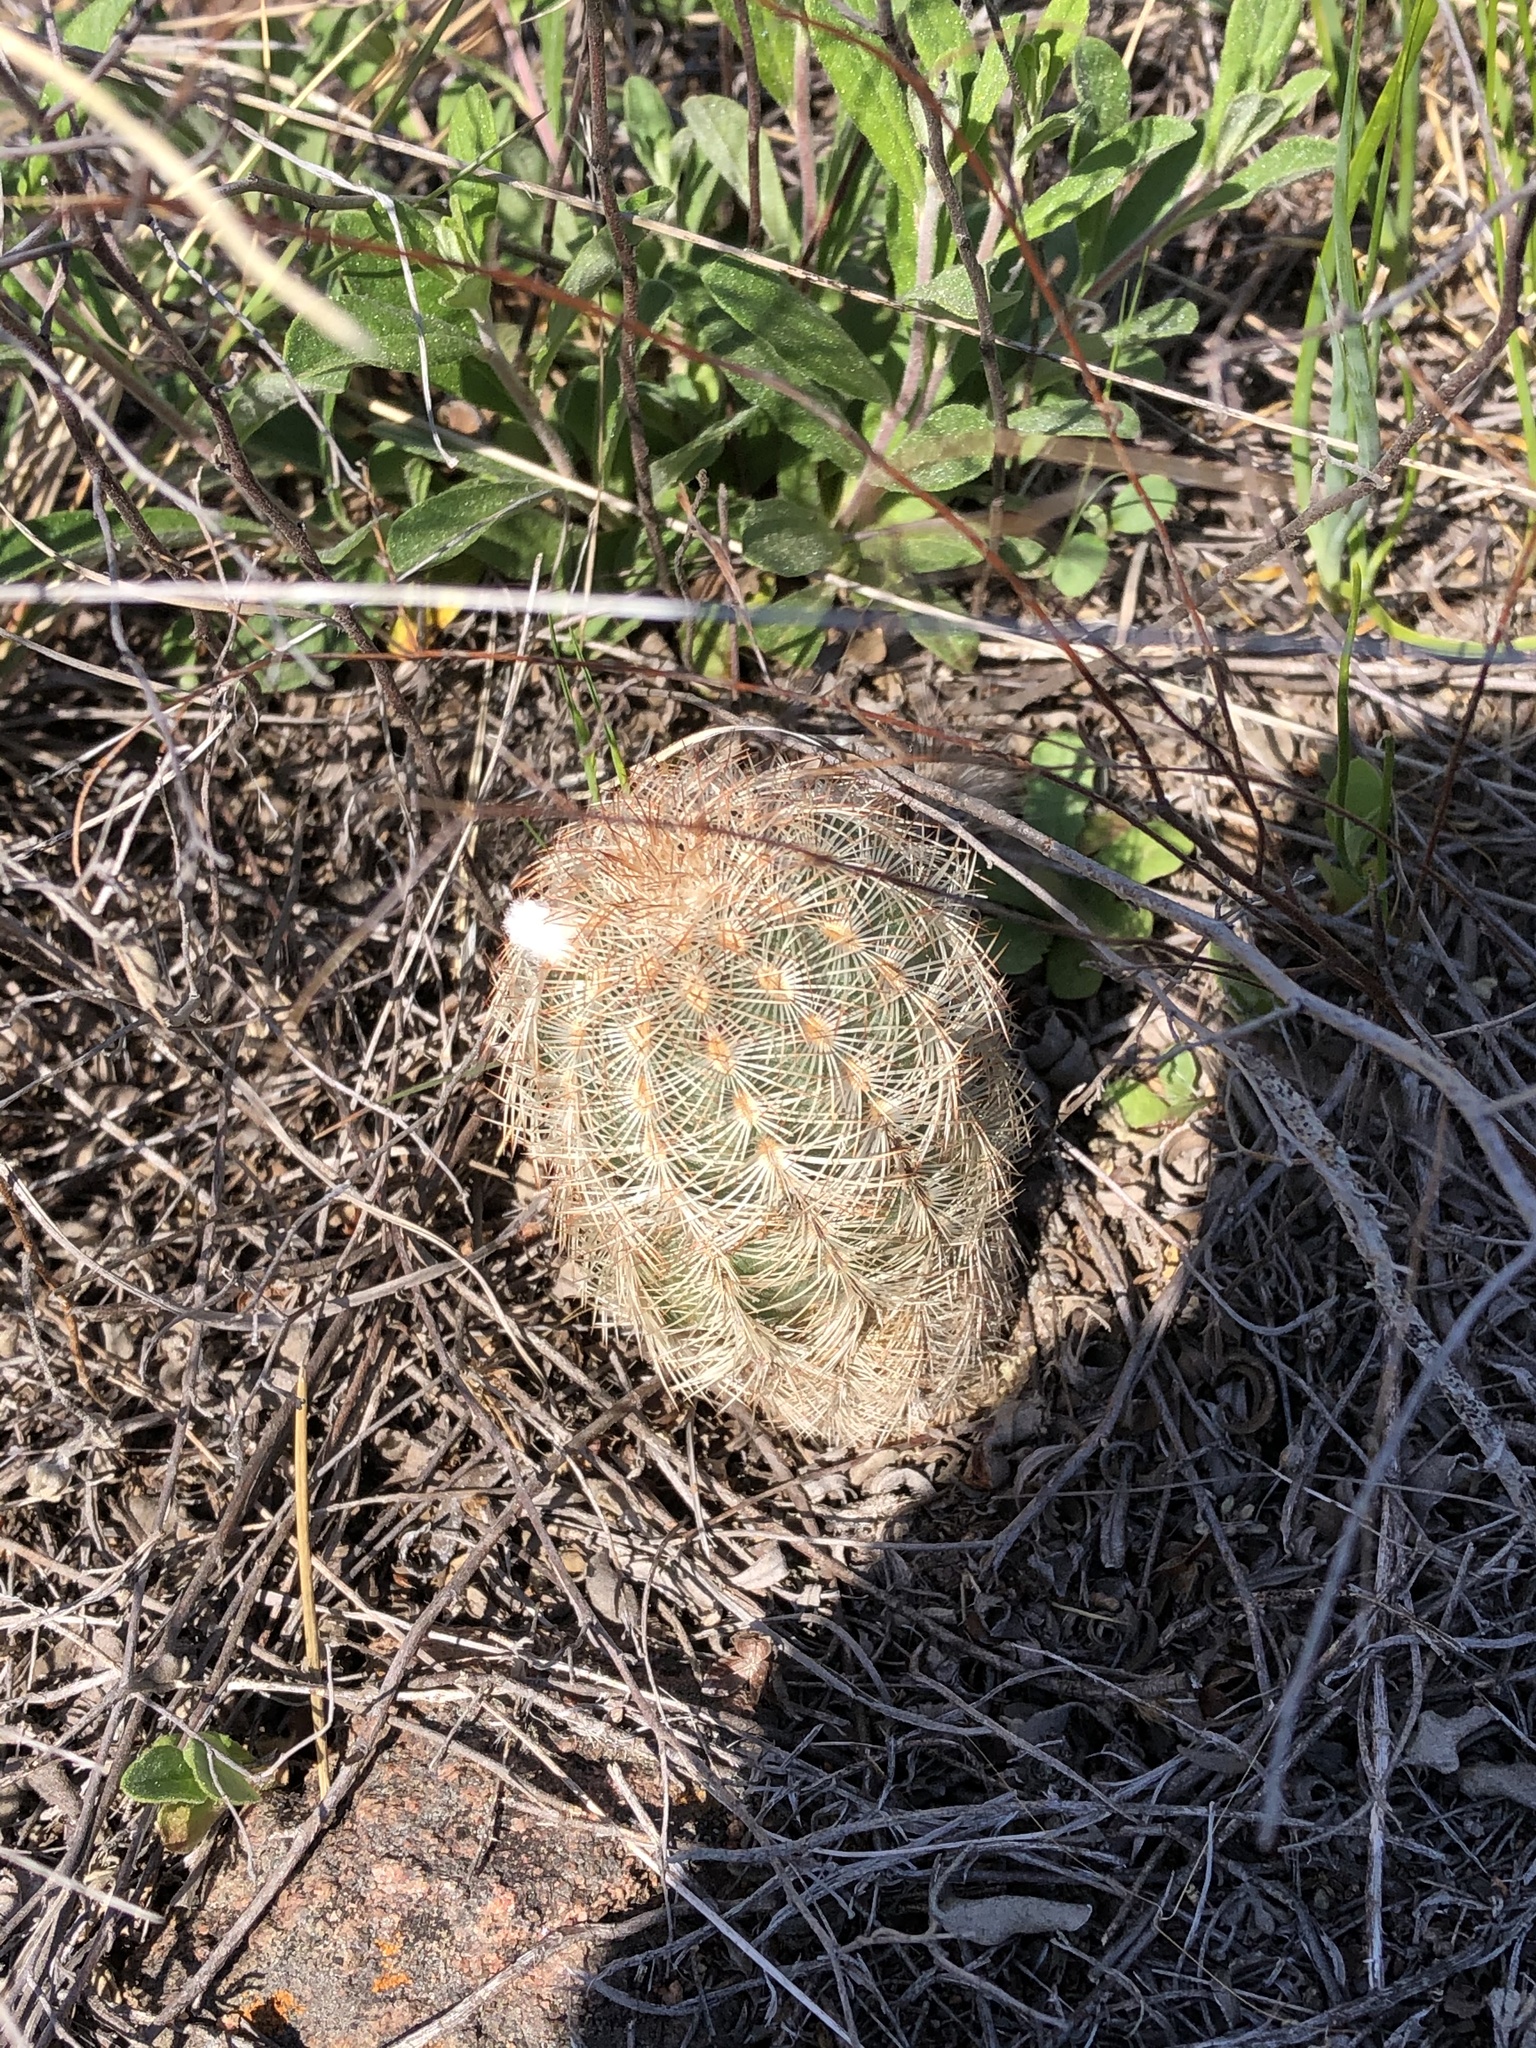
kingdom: Plantae
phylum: Tracheophyta
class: Magnoliopsida
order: Caryophyllales
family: Cactaceae
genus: Echinocereus
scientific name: Echinocereus reichenbachii
